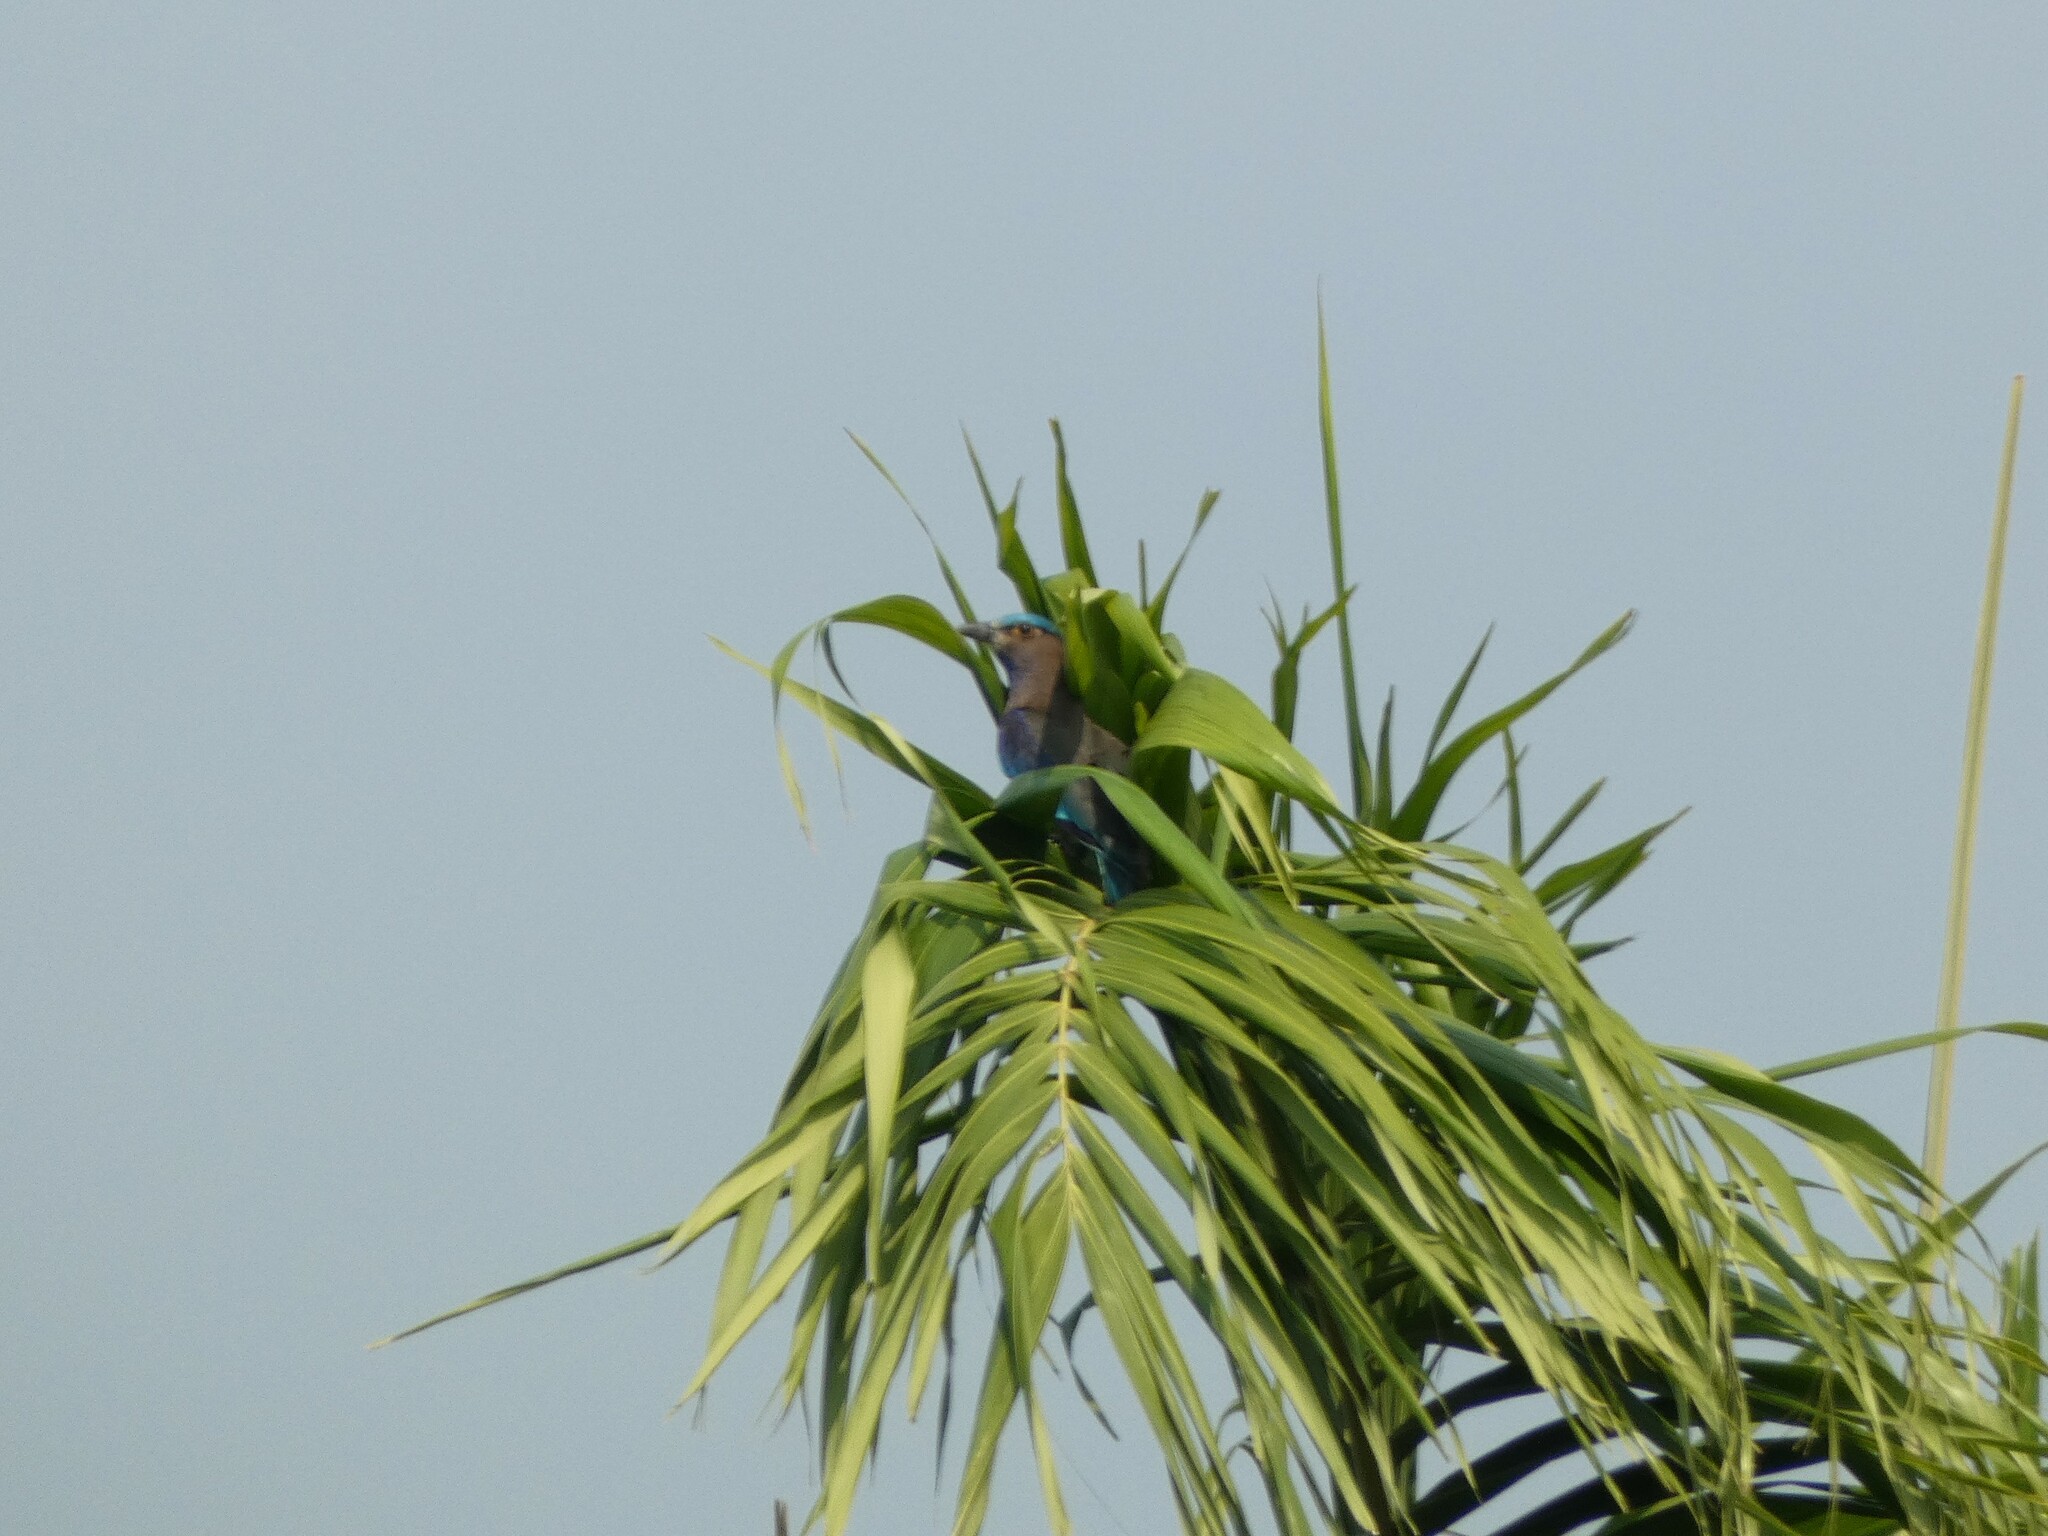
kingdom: Animalia
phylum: Chordata
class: Aves
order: Coraciiformes
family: Coraciidae
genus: Coracias
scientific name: Coracias affinis
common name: Indochinese roller
